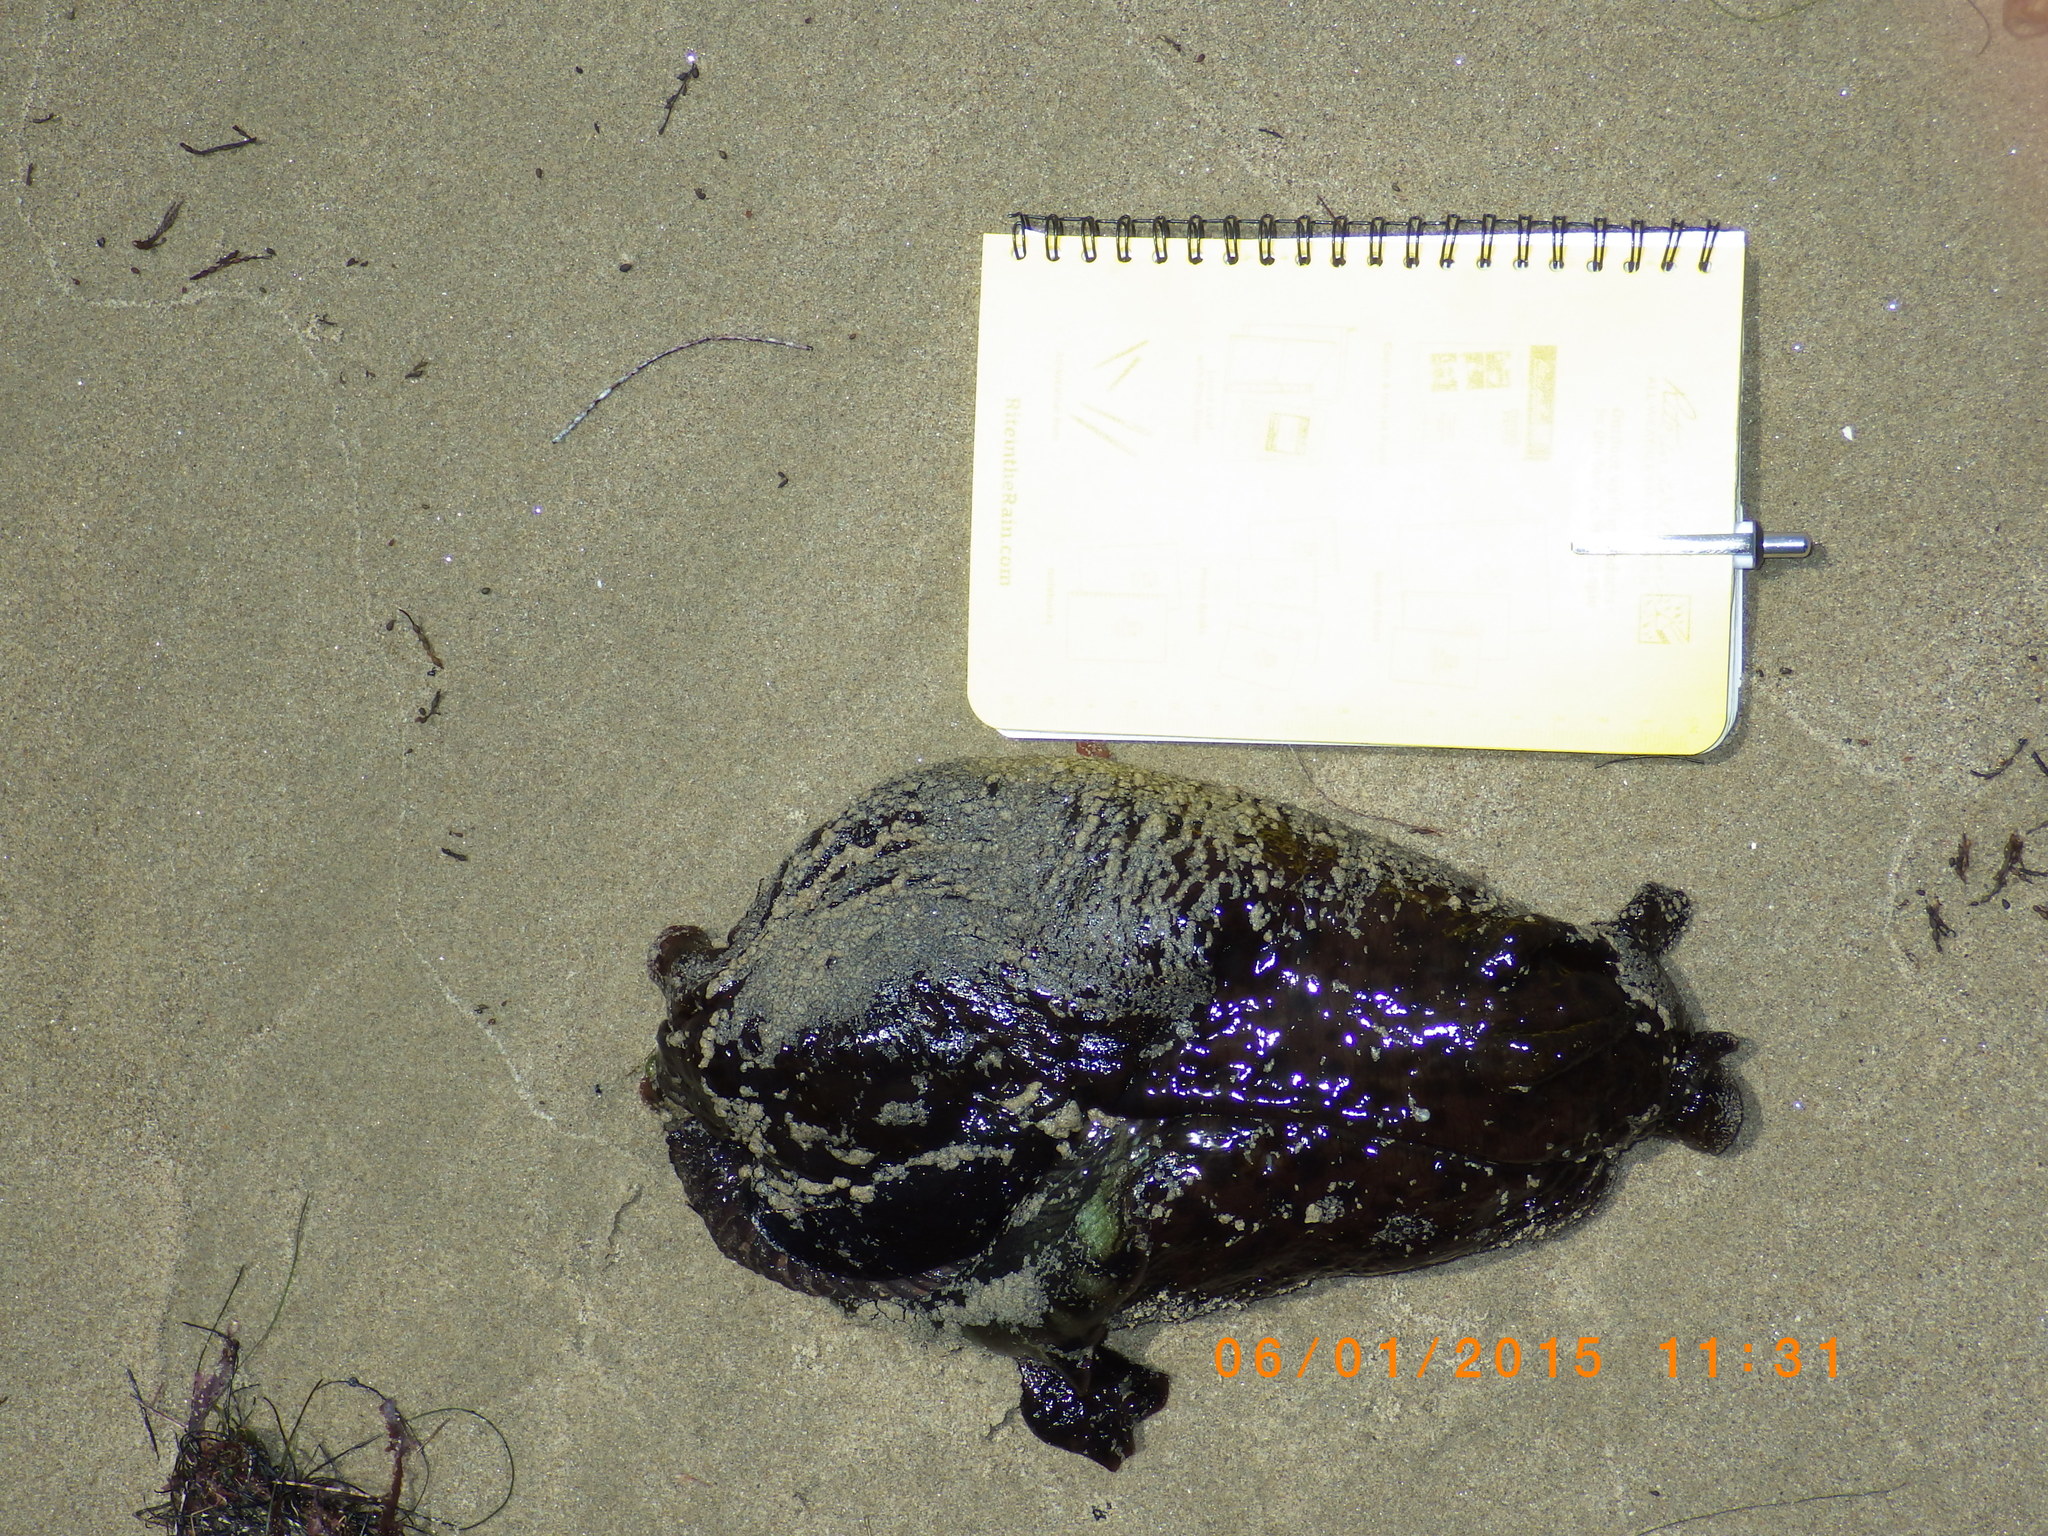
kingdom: Animalia
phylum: Mollusca
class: Gastropoda
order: Aplysiida
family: Aplysiidae
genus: Aplysia
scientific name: Aplysia californica
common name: California seahare
